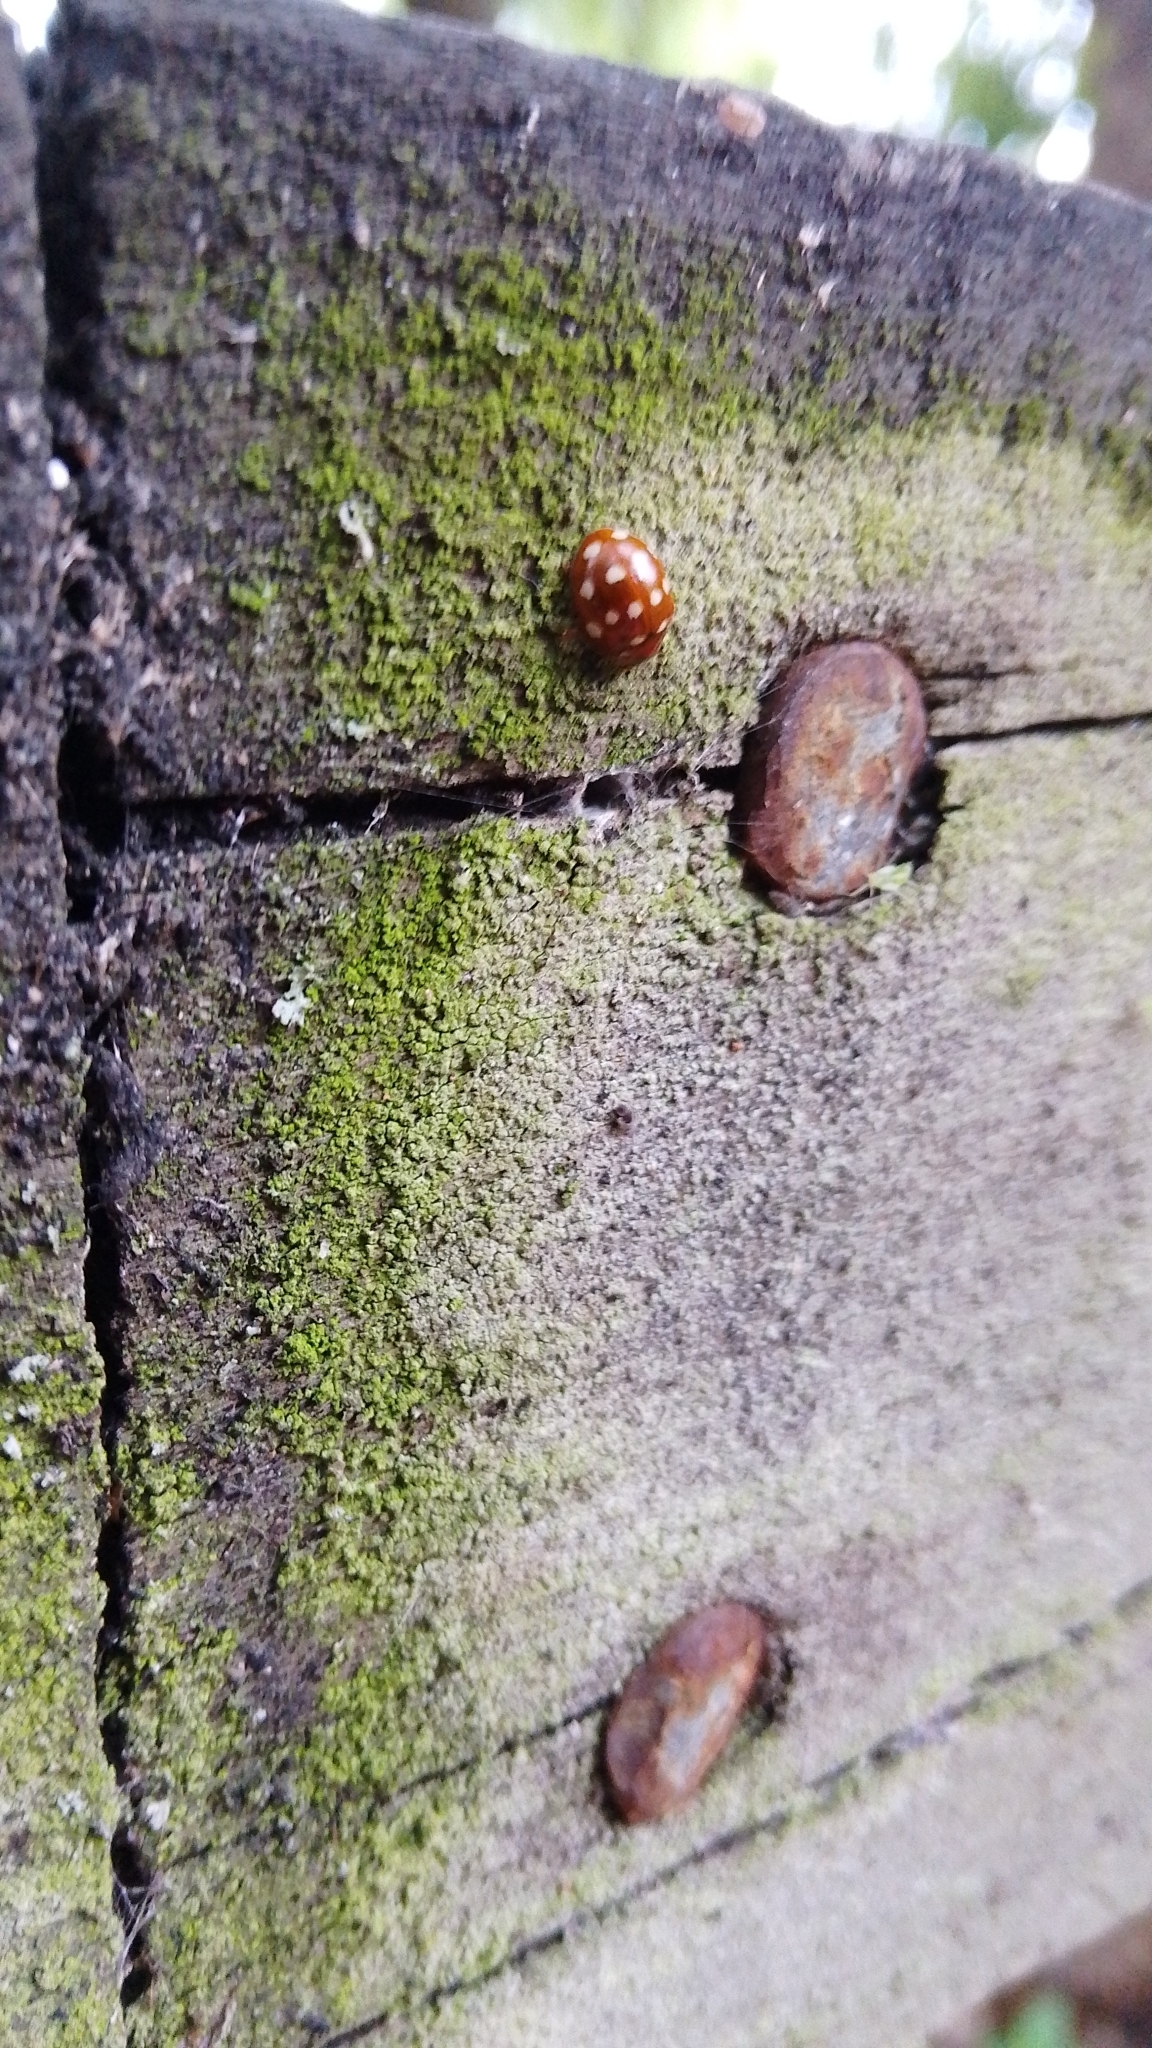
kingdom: Animalia
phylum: Arthropoda
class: Insecta
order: Coleoptera
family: Coccinellidae
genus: Calvia
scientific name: Calvia quatuordecimguttata
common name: Cream-spot ladybird
